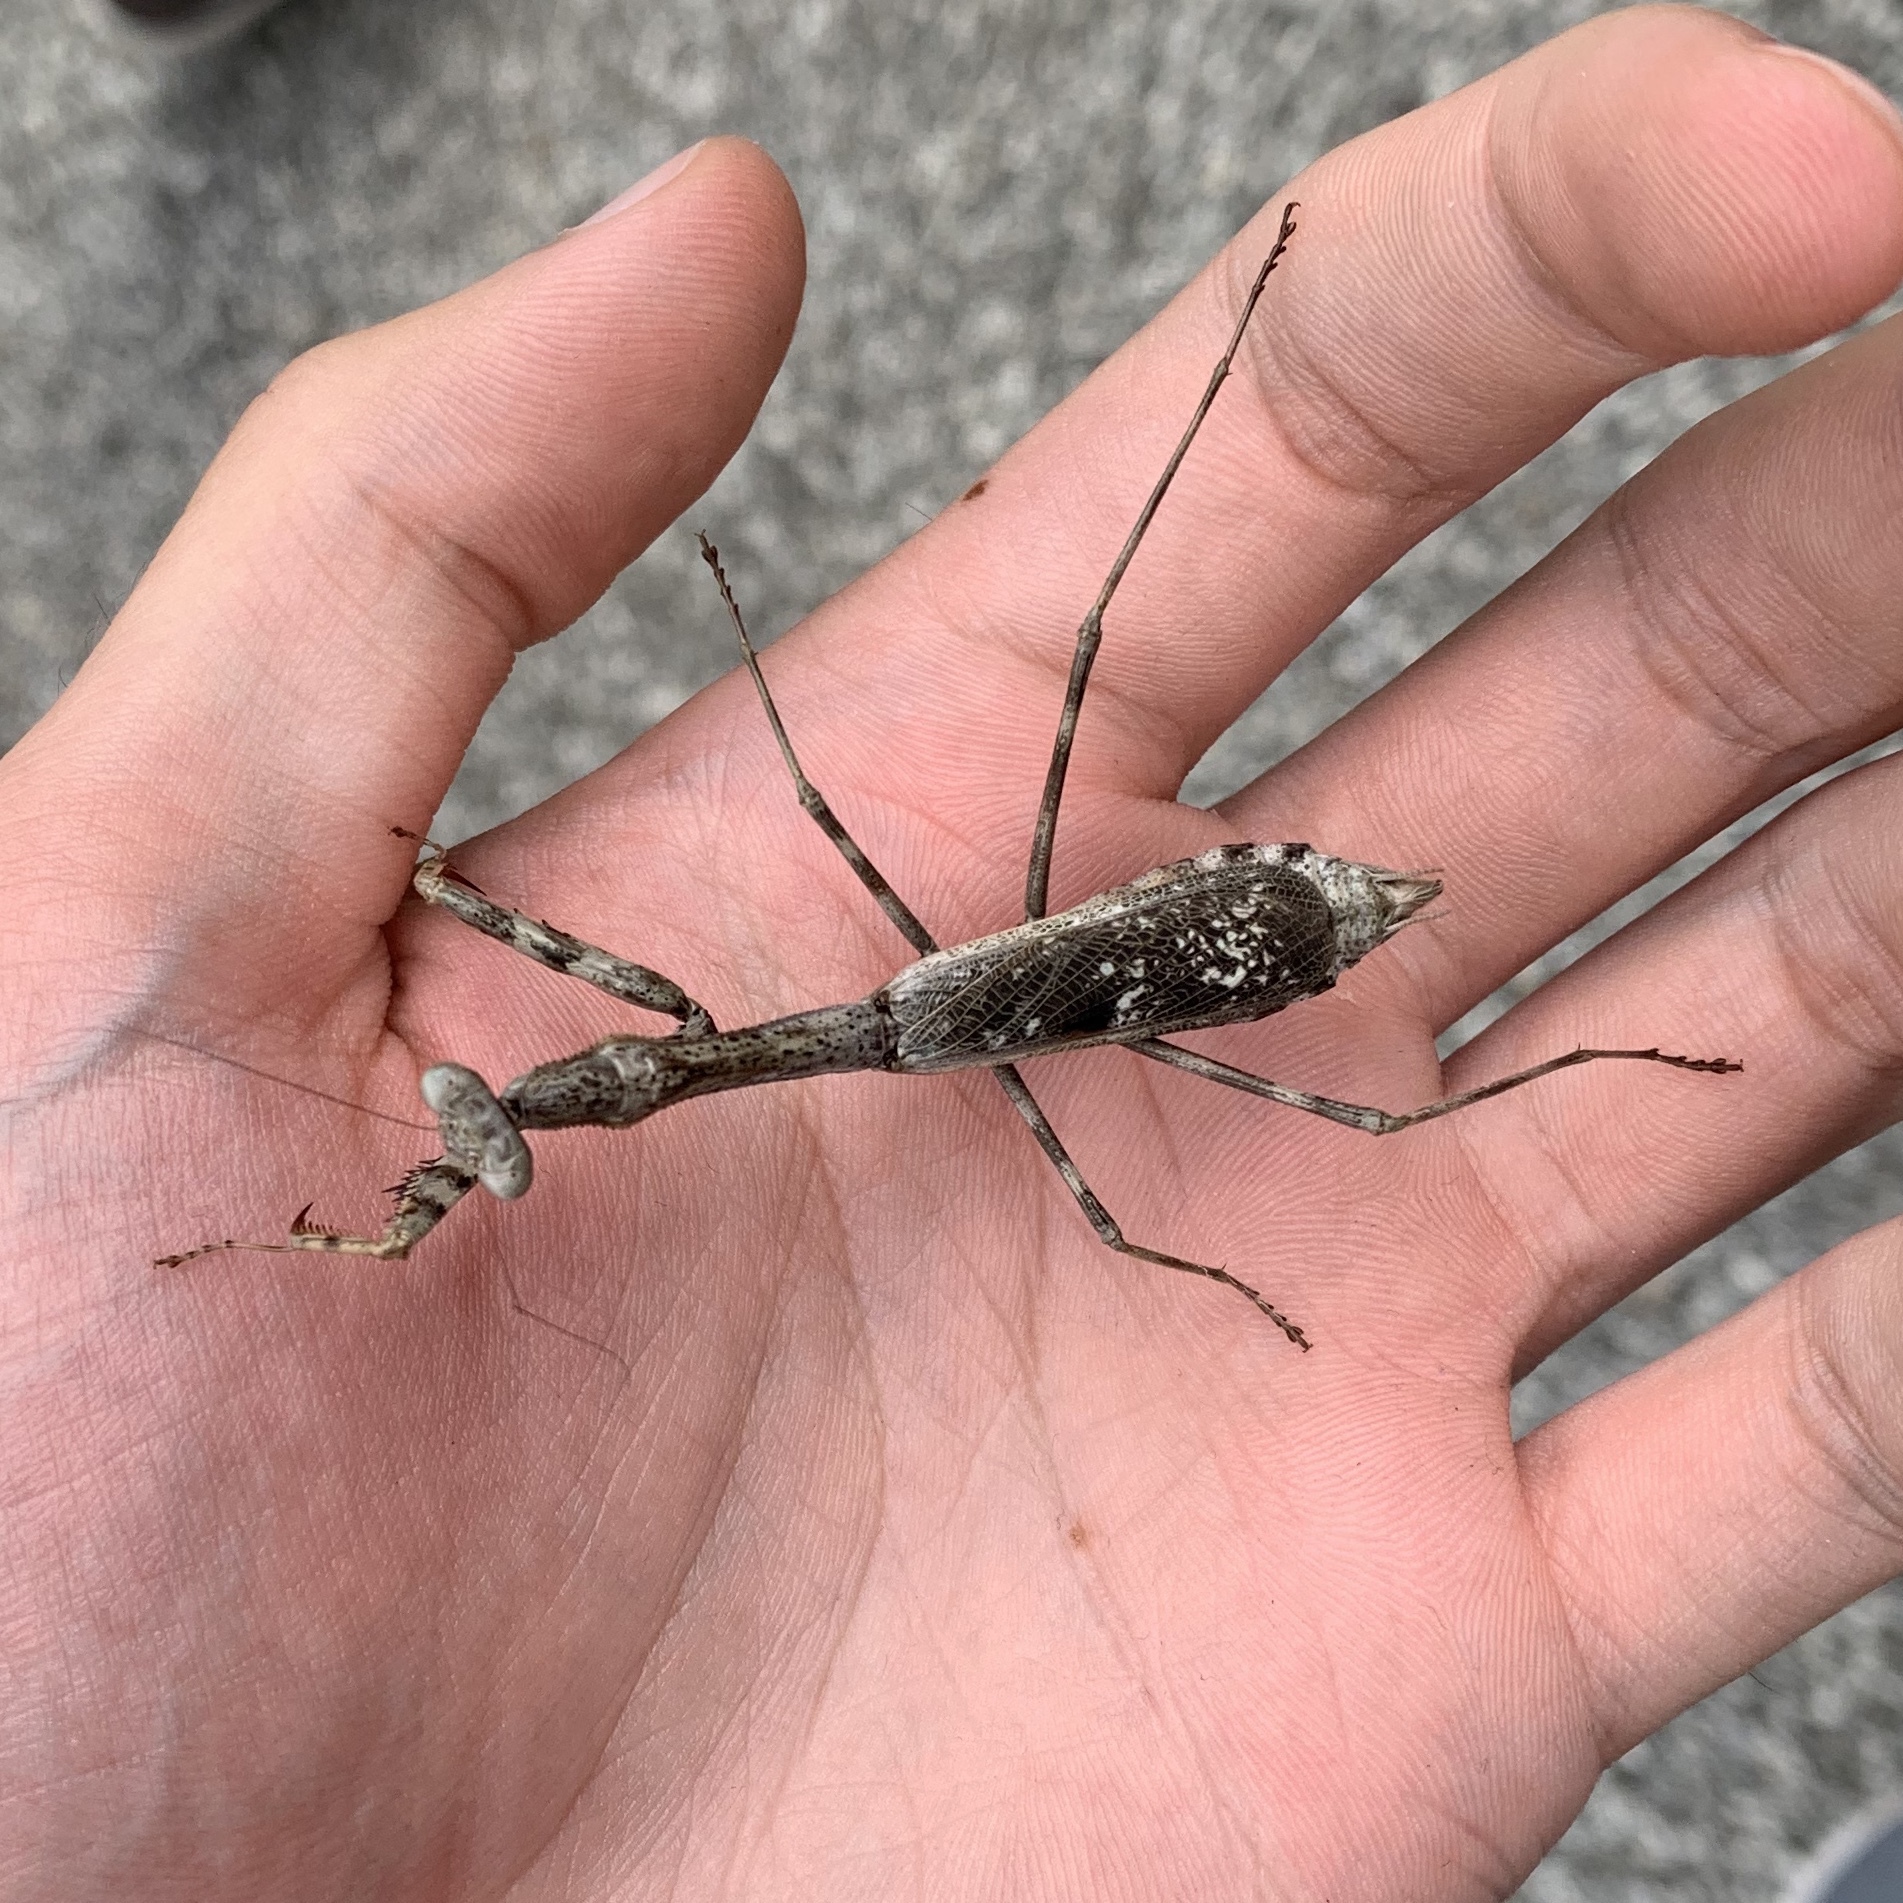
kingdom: Animalia
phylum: Arthropoda
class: Insecta
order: Mantodea
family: Mantidae
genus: Stagmomantis
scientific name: Stagmomantis carolina
